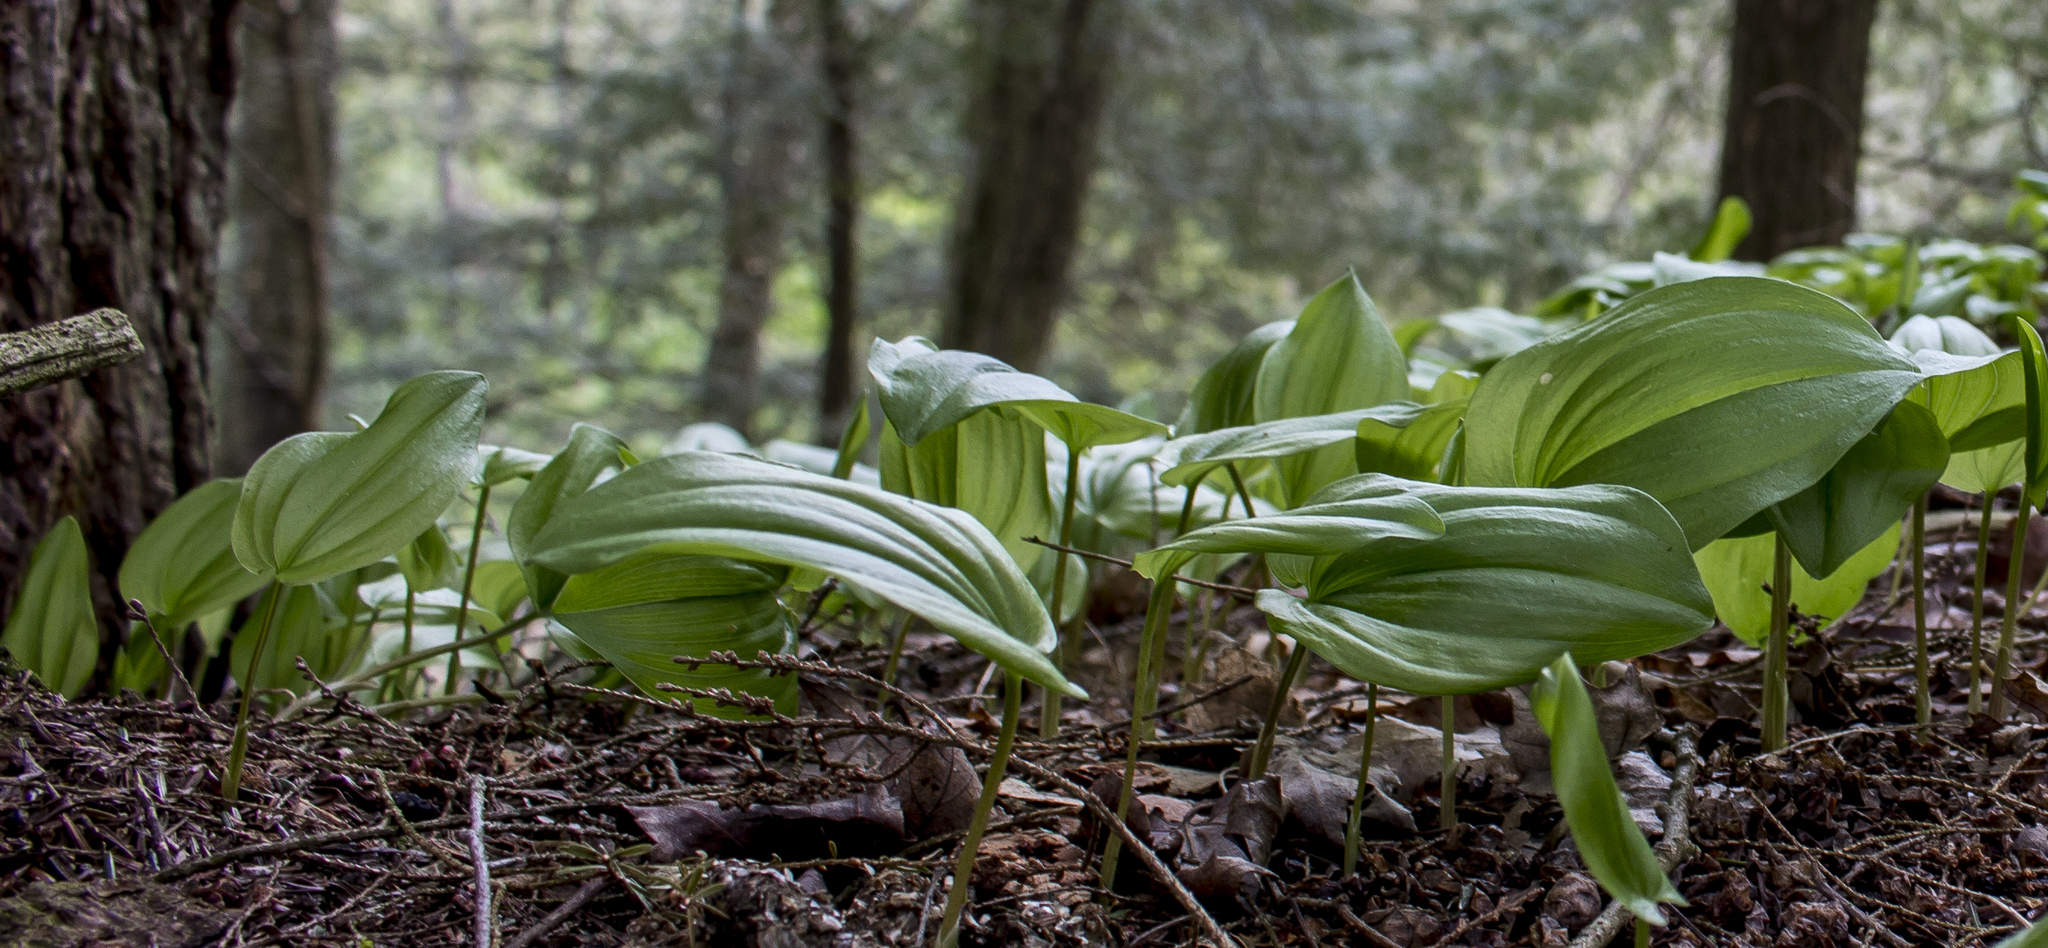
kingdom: Plantae
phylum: Tracheophyta
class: Liliopsida
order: Asparagales
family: Asparagaceae
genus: Maianthemum
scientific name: Maianthemum canadense
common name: False lily-of-the-valley
